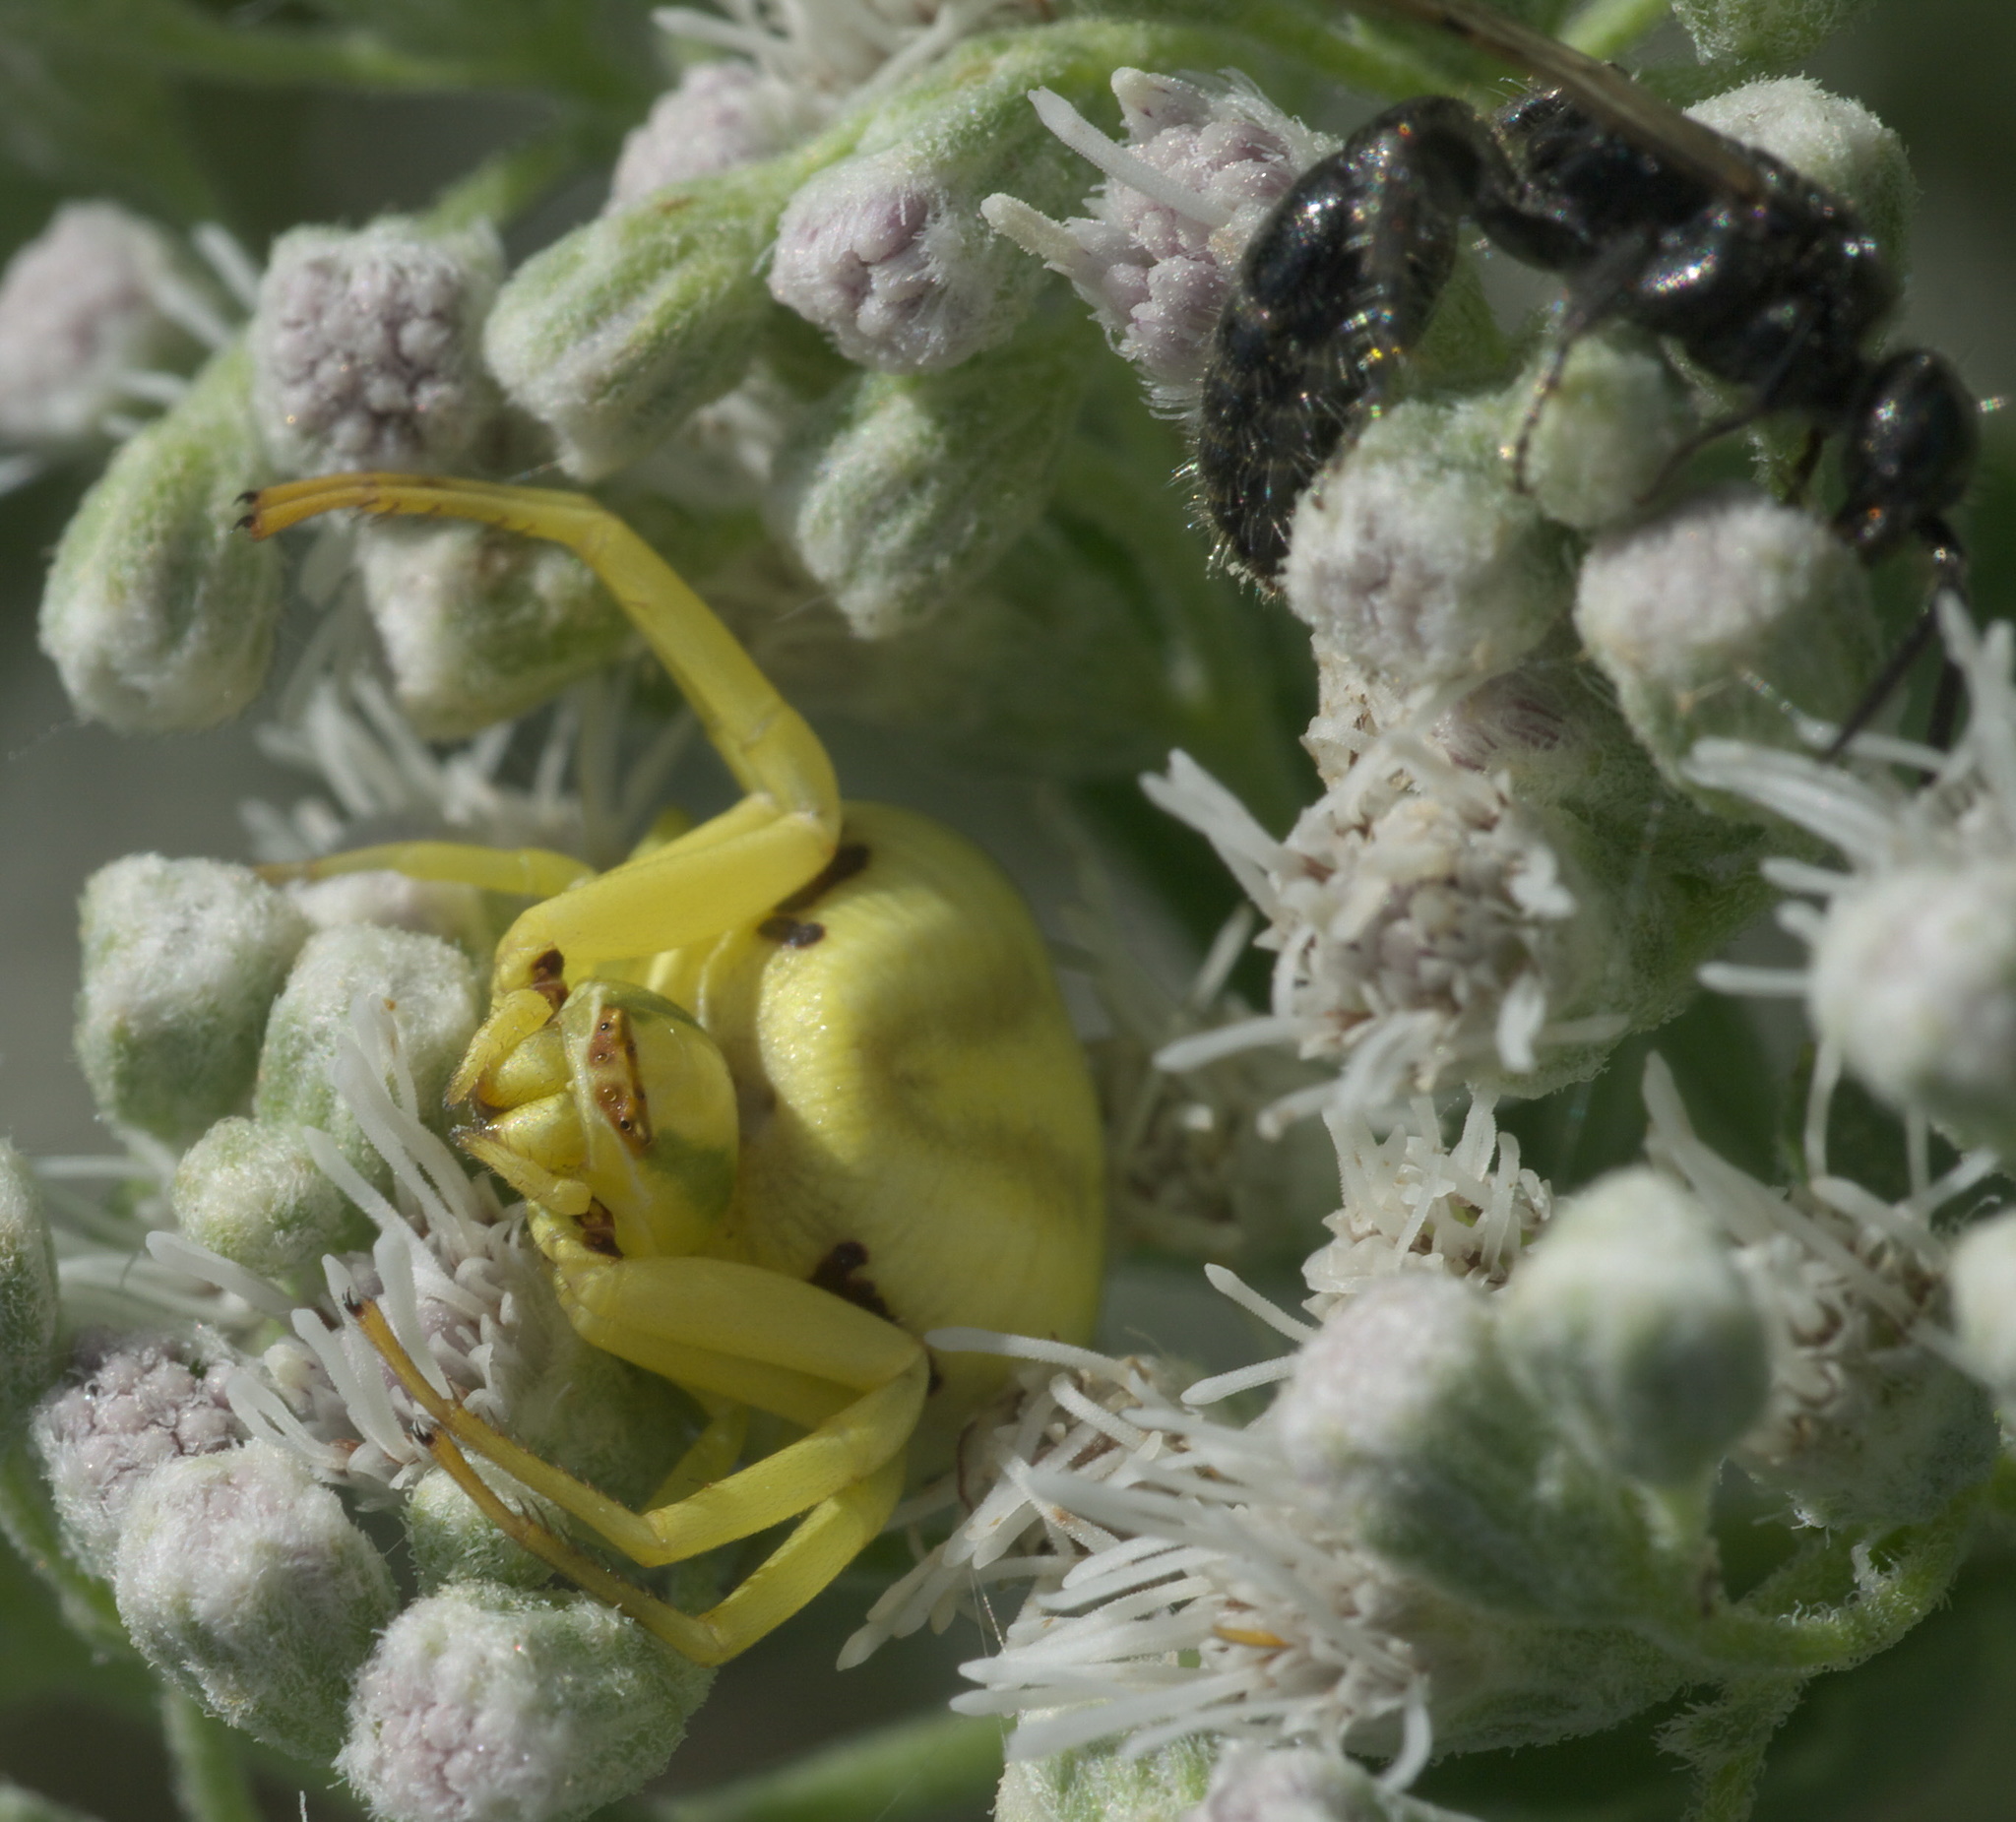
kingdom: Animalia
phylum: Arthropoda
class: Arachnida
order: Araneae
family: Thomisidae
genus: Misumenoides
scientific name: Misumenoides formosipes
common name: White-banded crab spider
